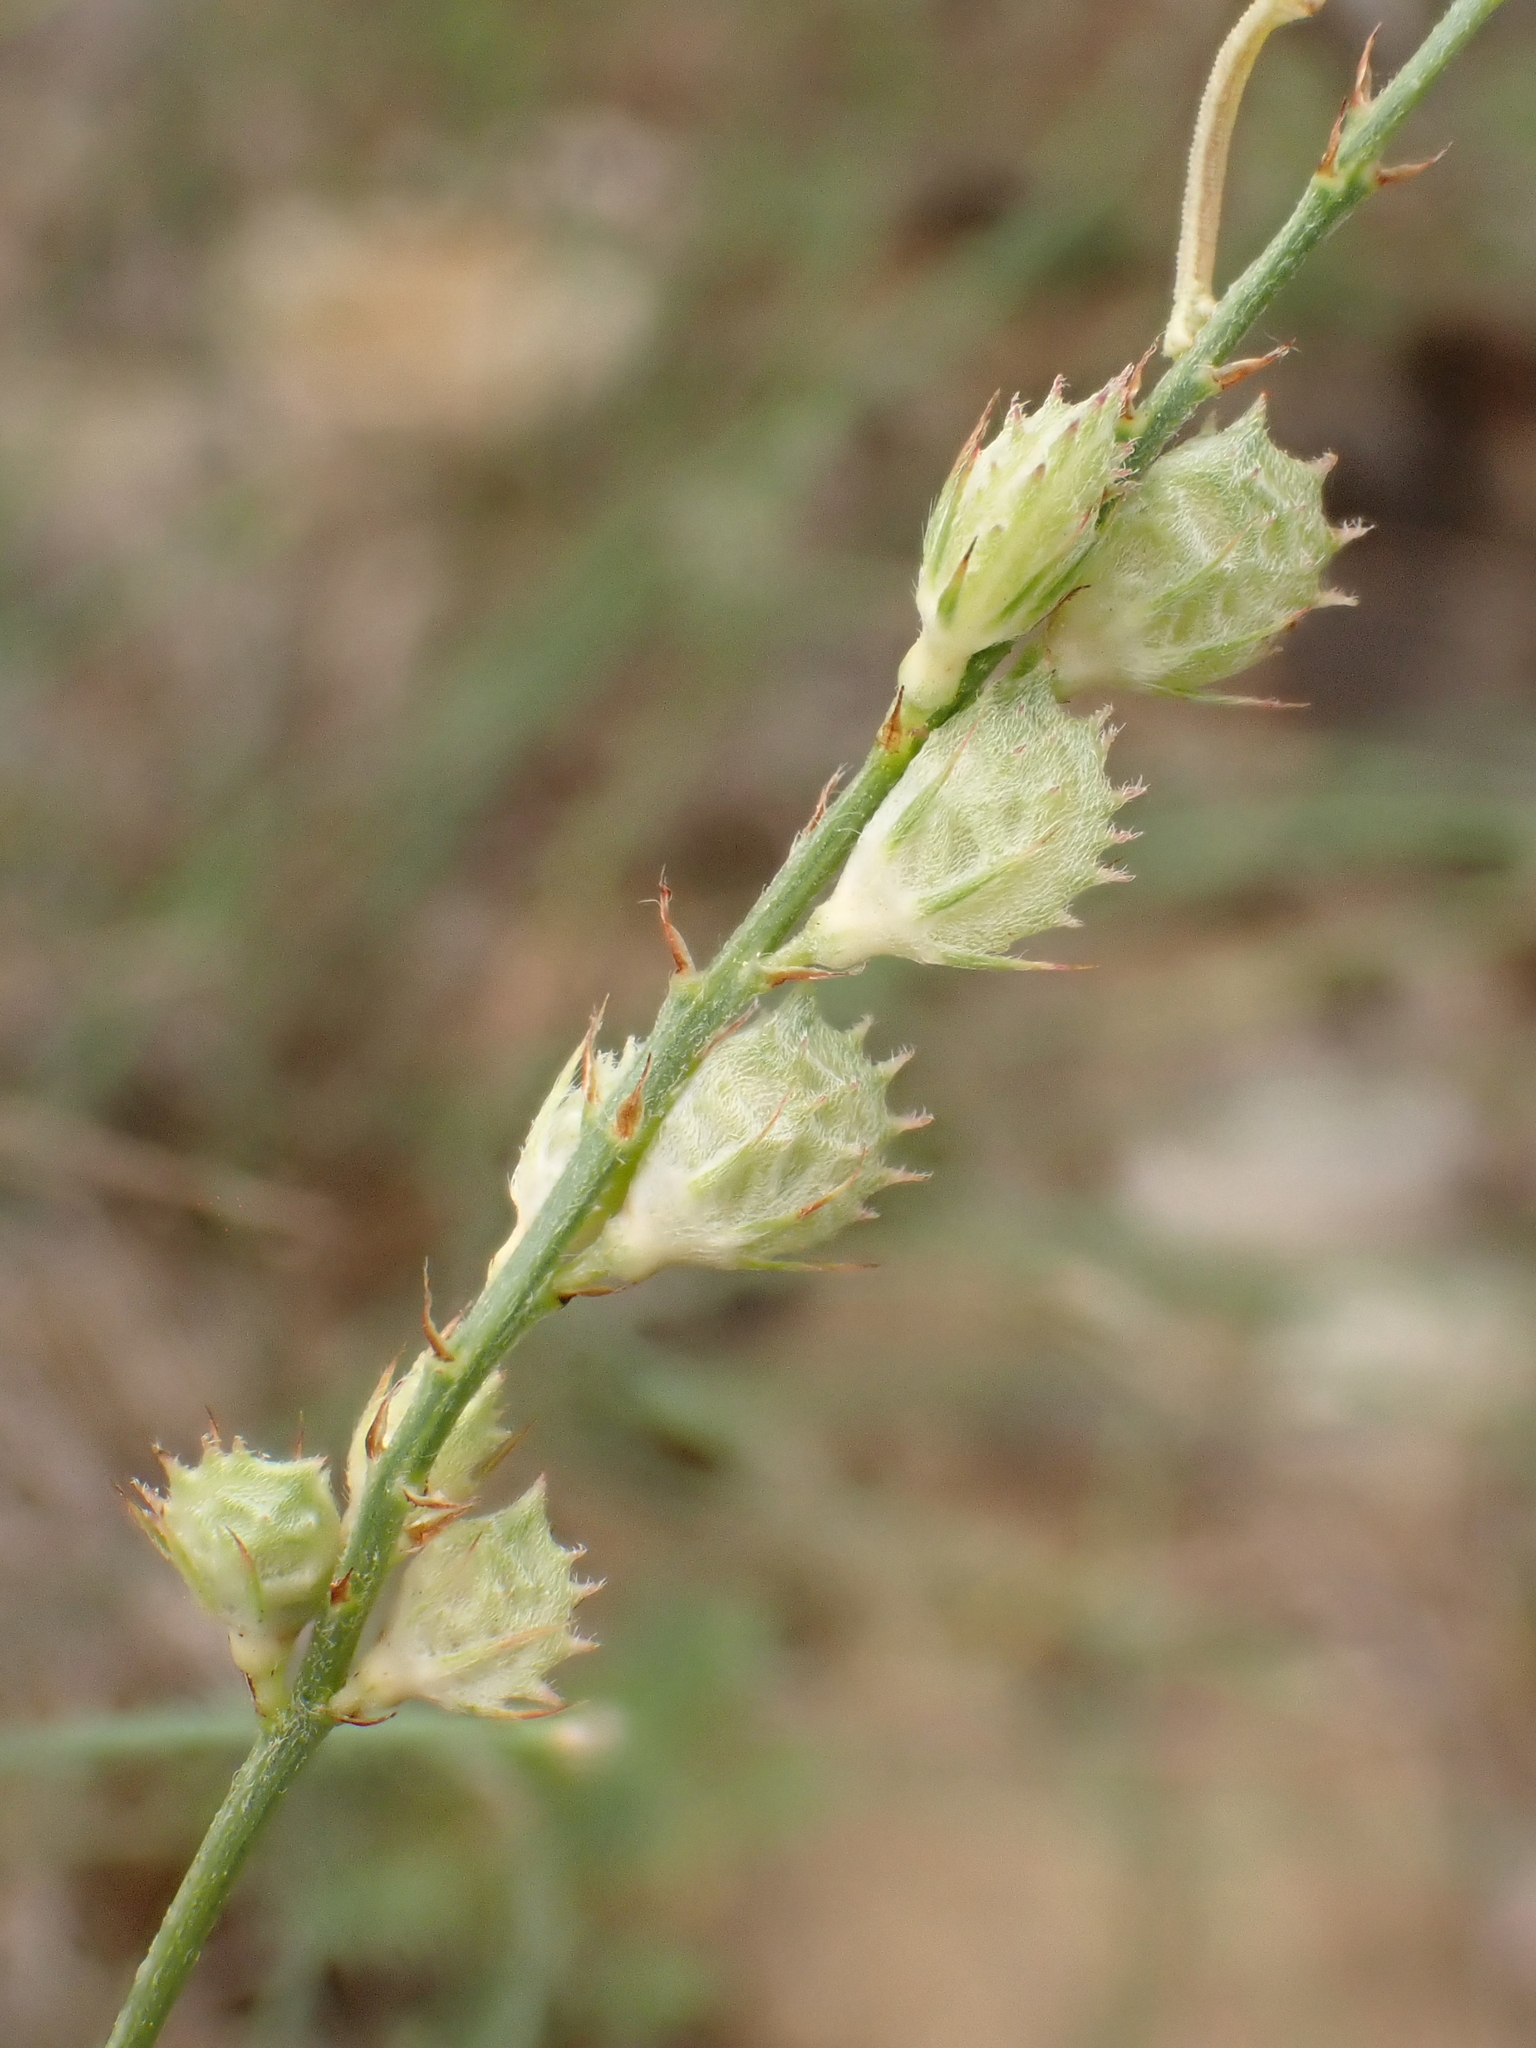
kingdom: Plantae
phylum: Tracheophyta
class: Magnoliopsida
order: Fabales
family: Fabaceae
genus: Onobrychis
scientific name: Onobrychis supina
